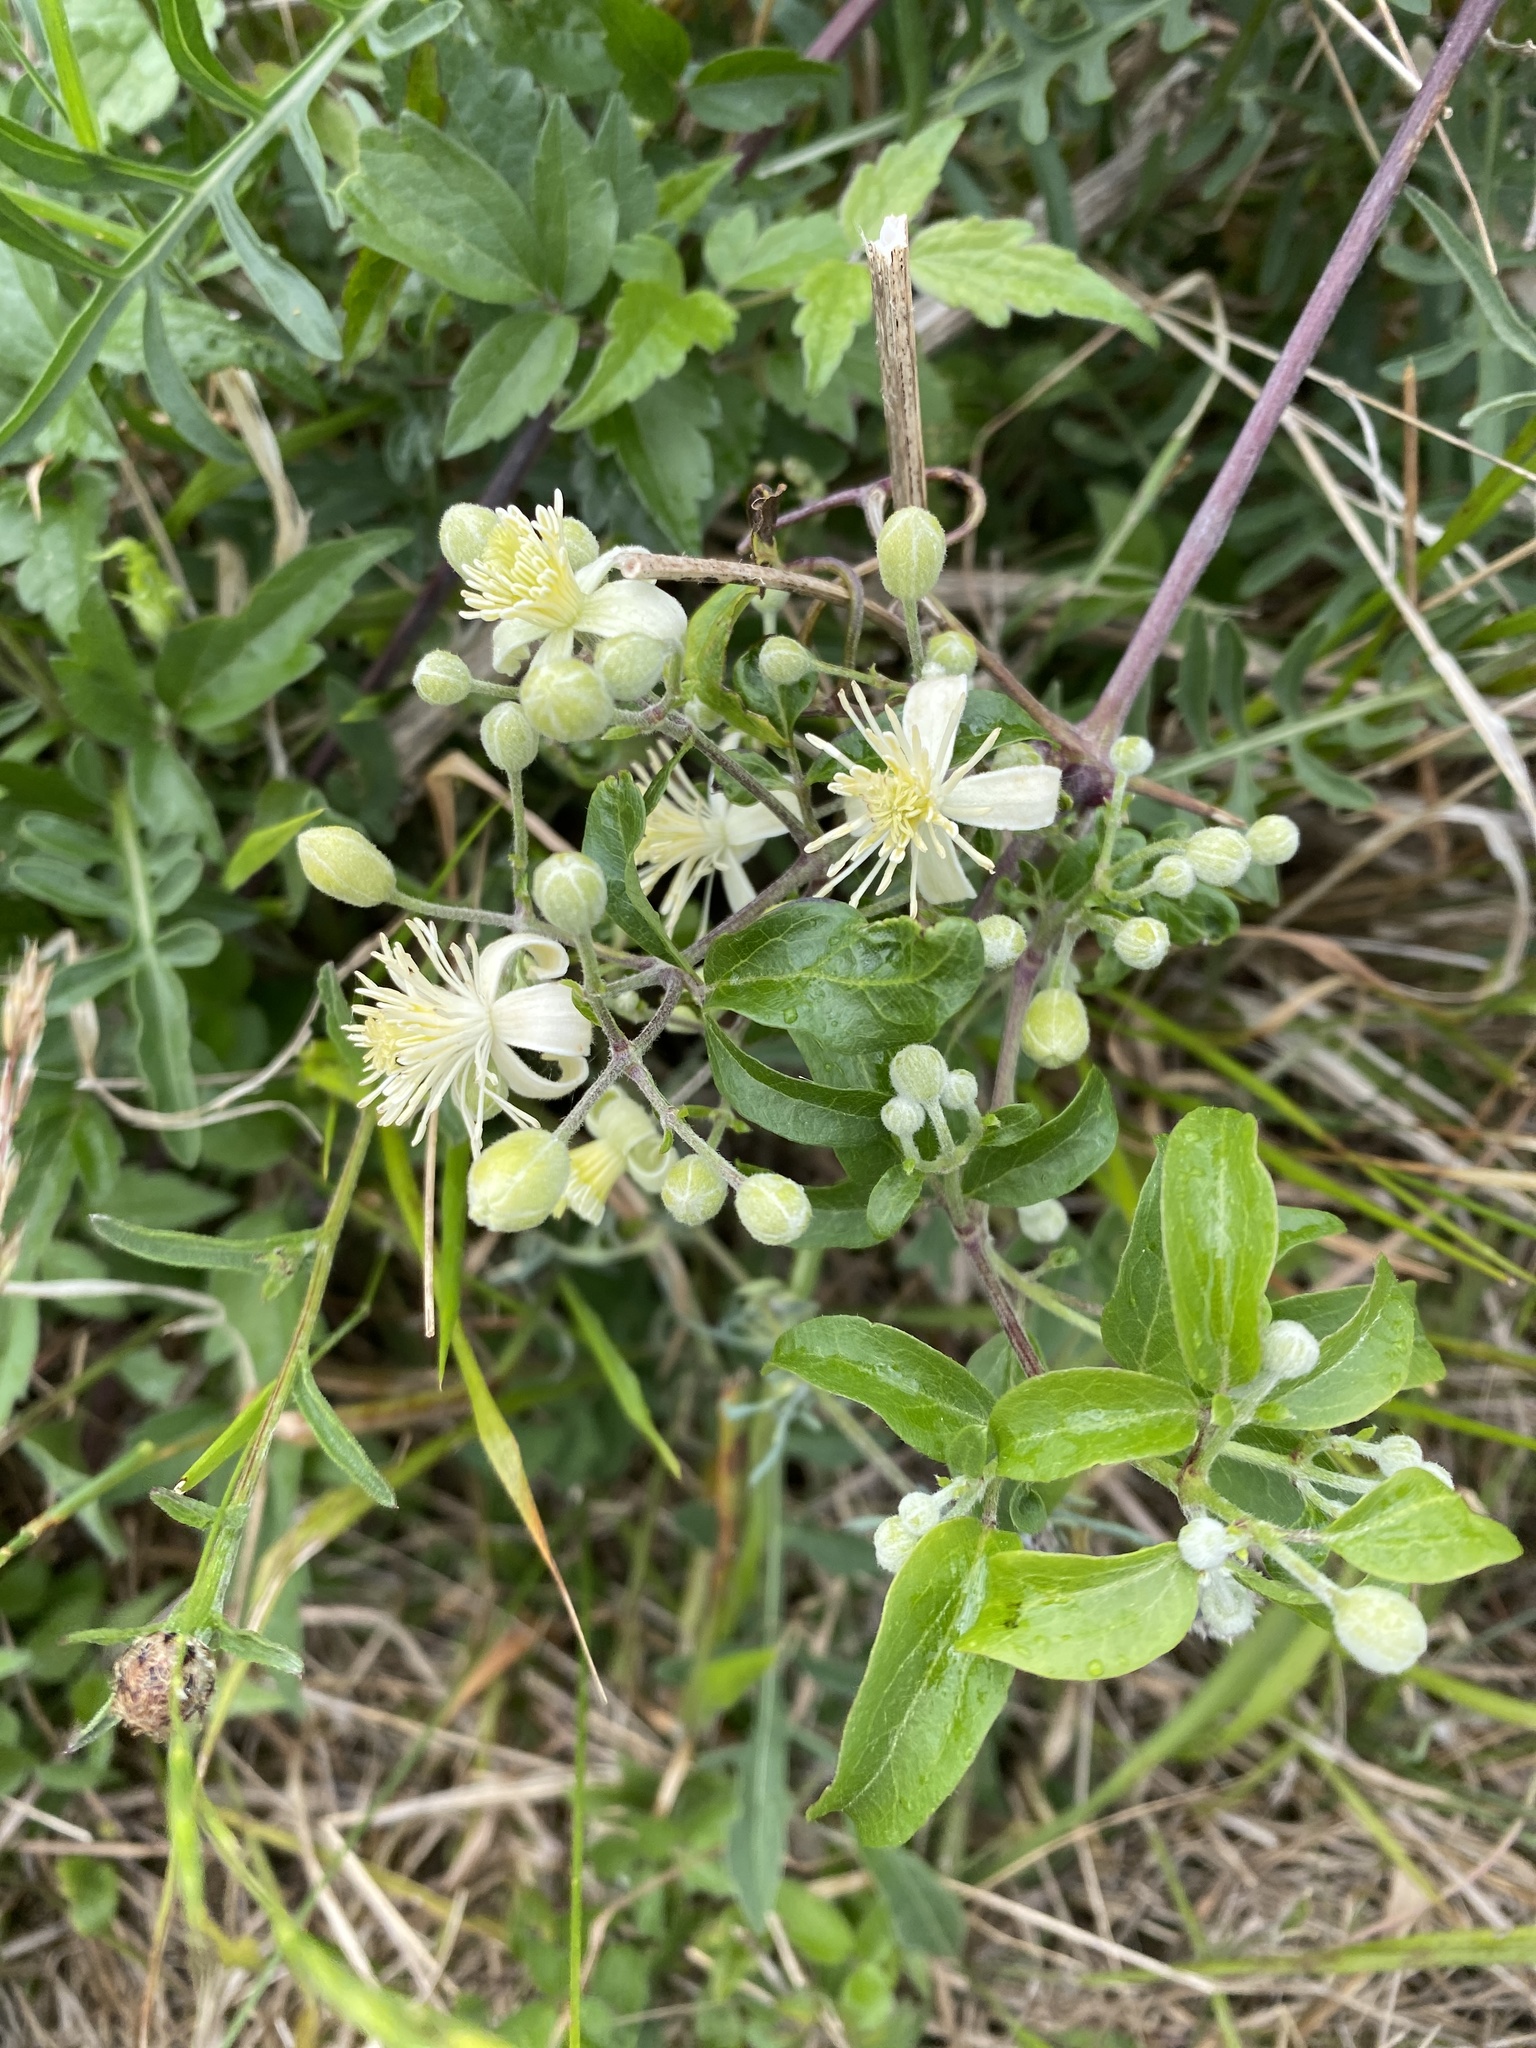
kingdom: Plantae
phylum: Tracheophyta
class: Magnoliopsida
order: Ranunculales
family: Ranunculaceae
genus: Clematis
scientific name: Clematis vitalba
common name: Evergreen clematis
